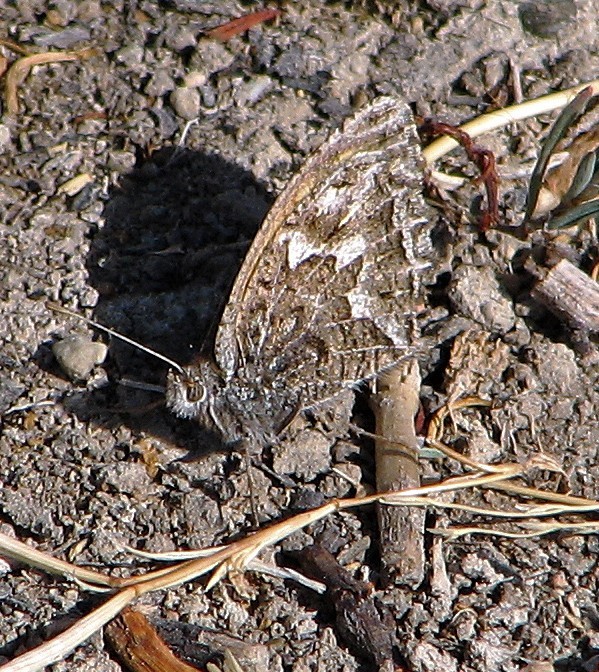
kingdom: Animalia
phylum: Arthropoda
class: Insecta
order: Lepidoptera
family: Nymphalidae
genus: Argyrophorus
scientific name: Argyrophorus
